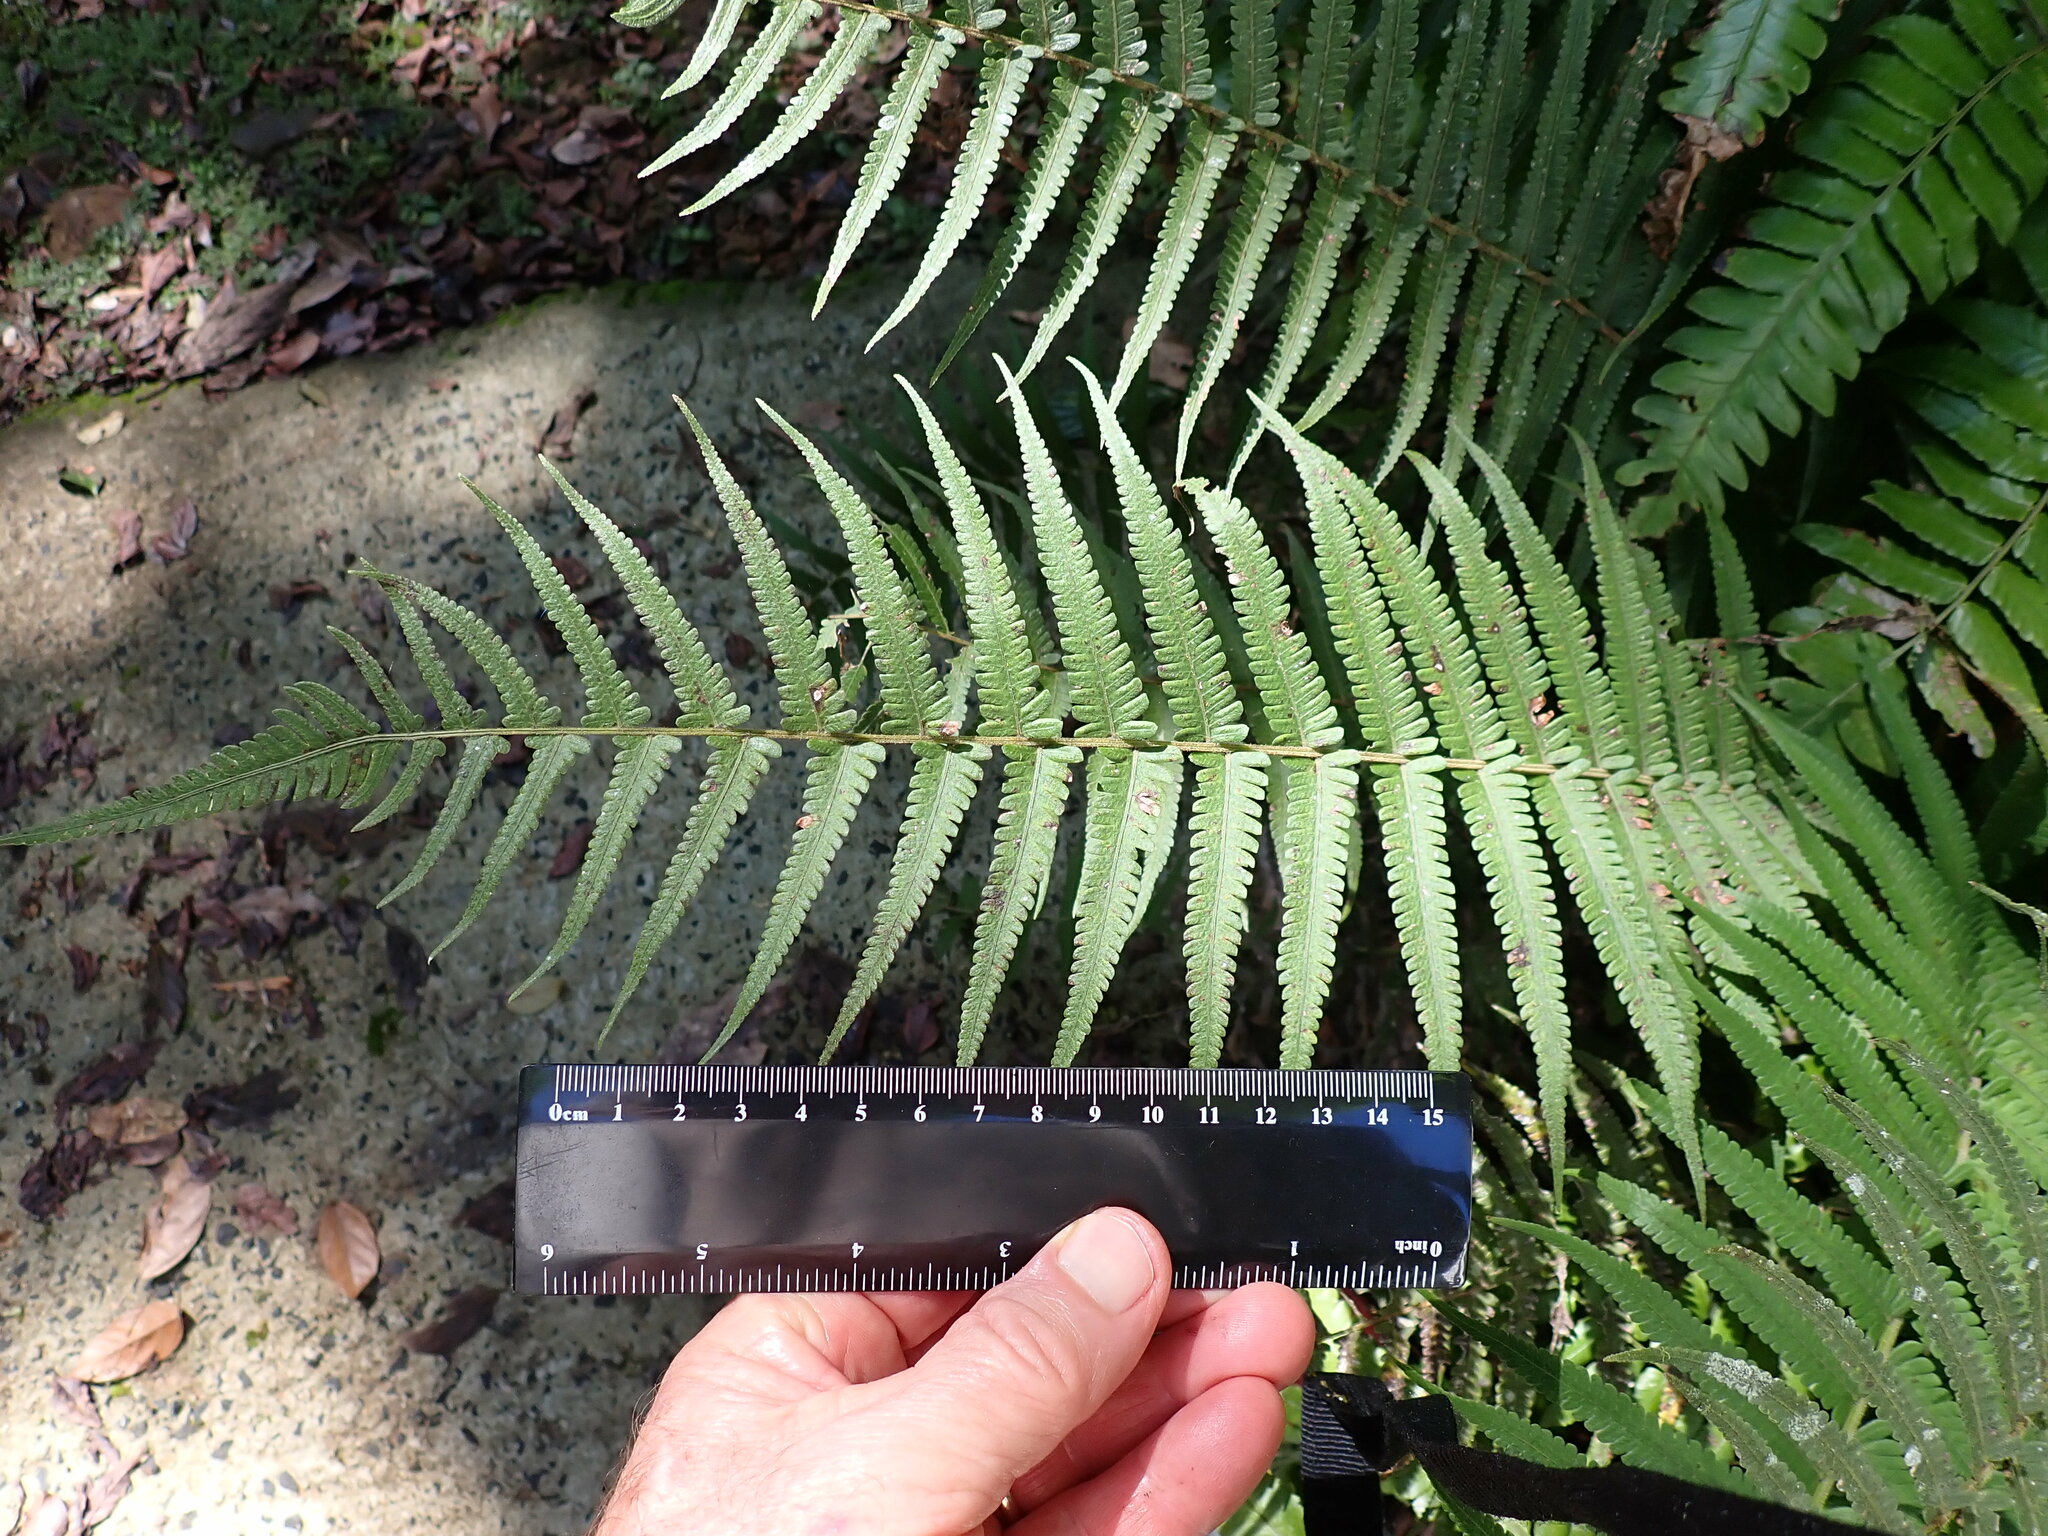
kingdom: Plantae
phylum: Tracheophyta
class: Polypodiopsida
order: Polypodiales
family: Thelypteridaceae
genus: Christella
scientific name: Christella parasitica
